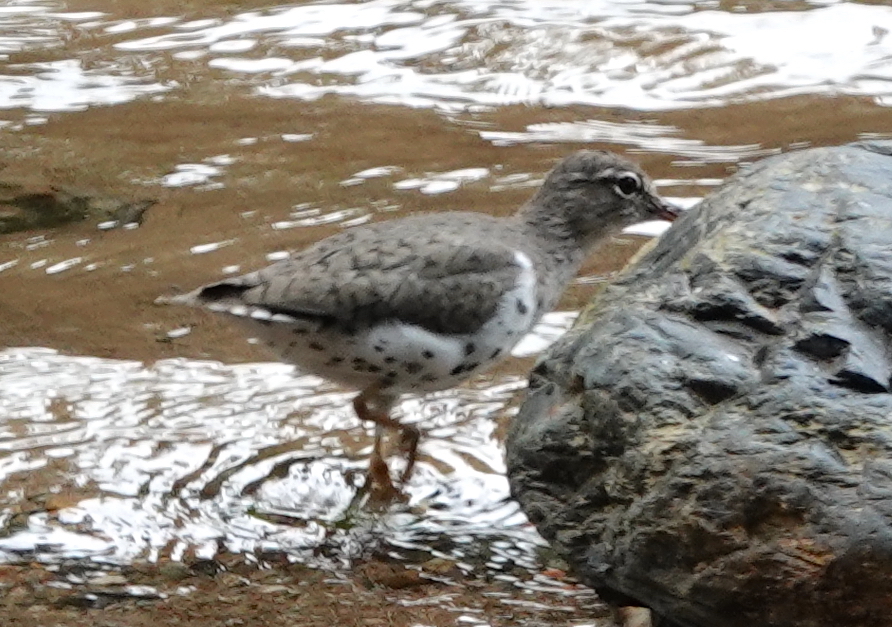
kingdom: Animalia
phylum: Chordata
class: Aves
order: Charadriiformes
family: Scolopacidae
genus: Actitis
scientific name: Actitis macularius
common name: Spotted sandpiper
